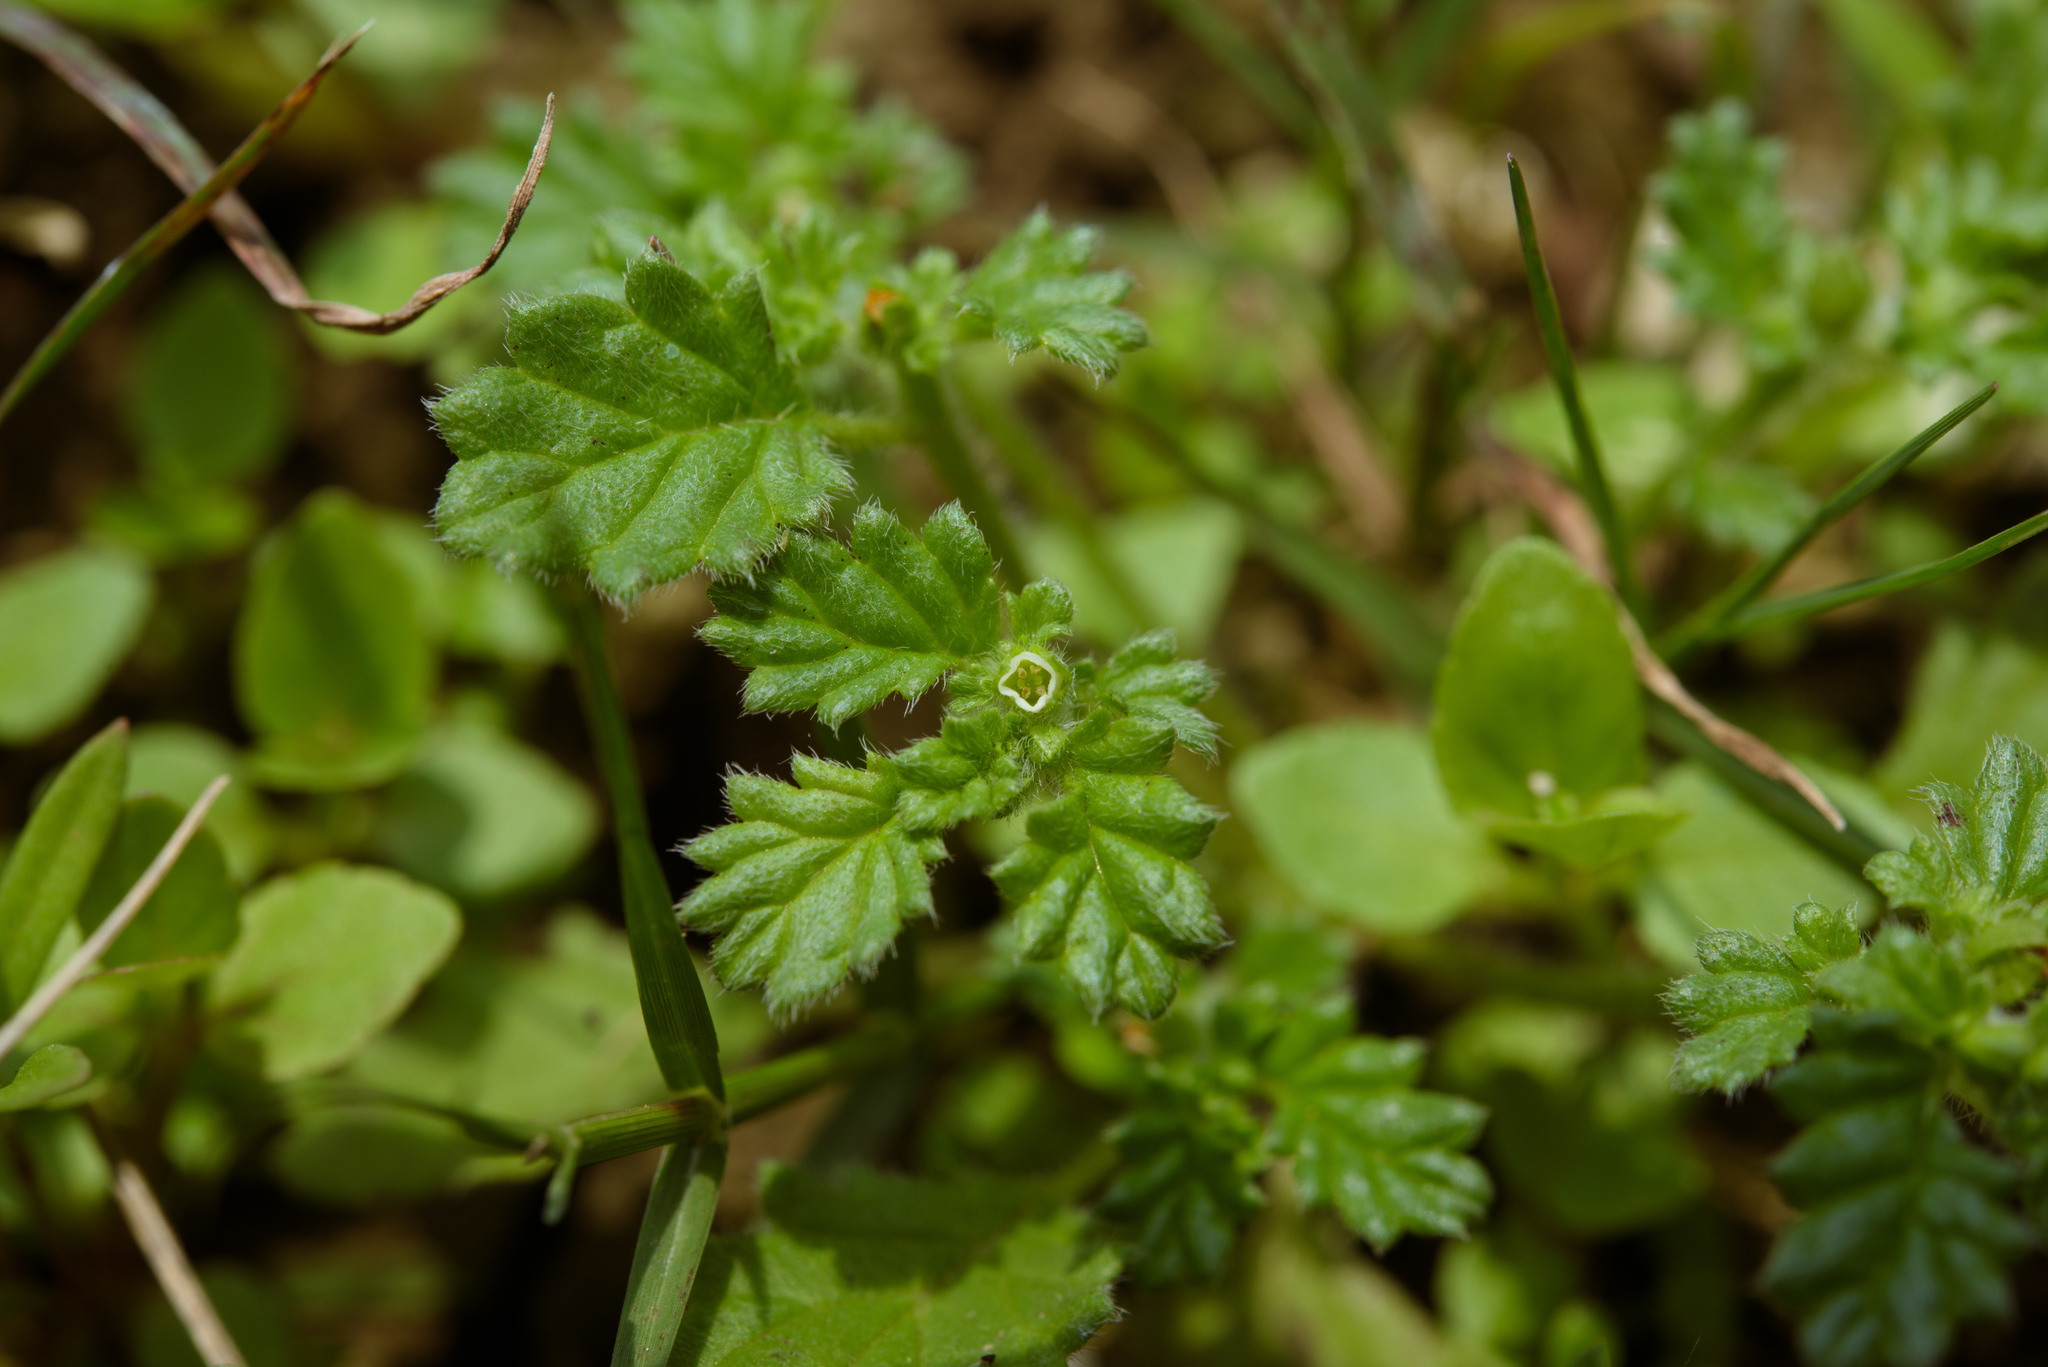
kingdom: Plantae
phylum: Tracheophyta
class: Magnoliopsida
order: Boraginales
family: Coldeniaceae
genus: Coldenia
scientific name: Coldenia procumbens
